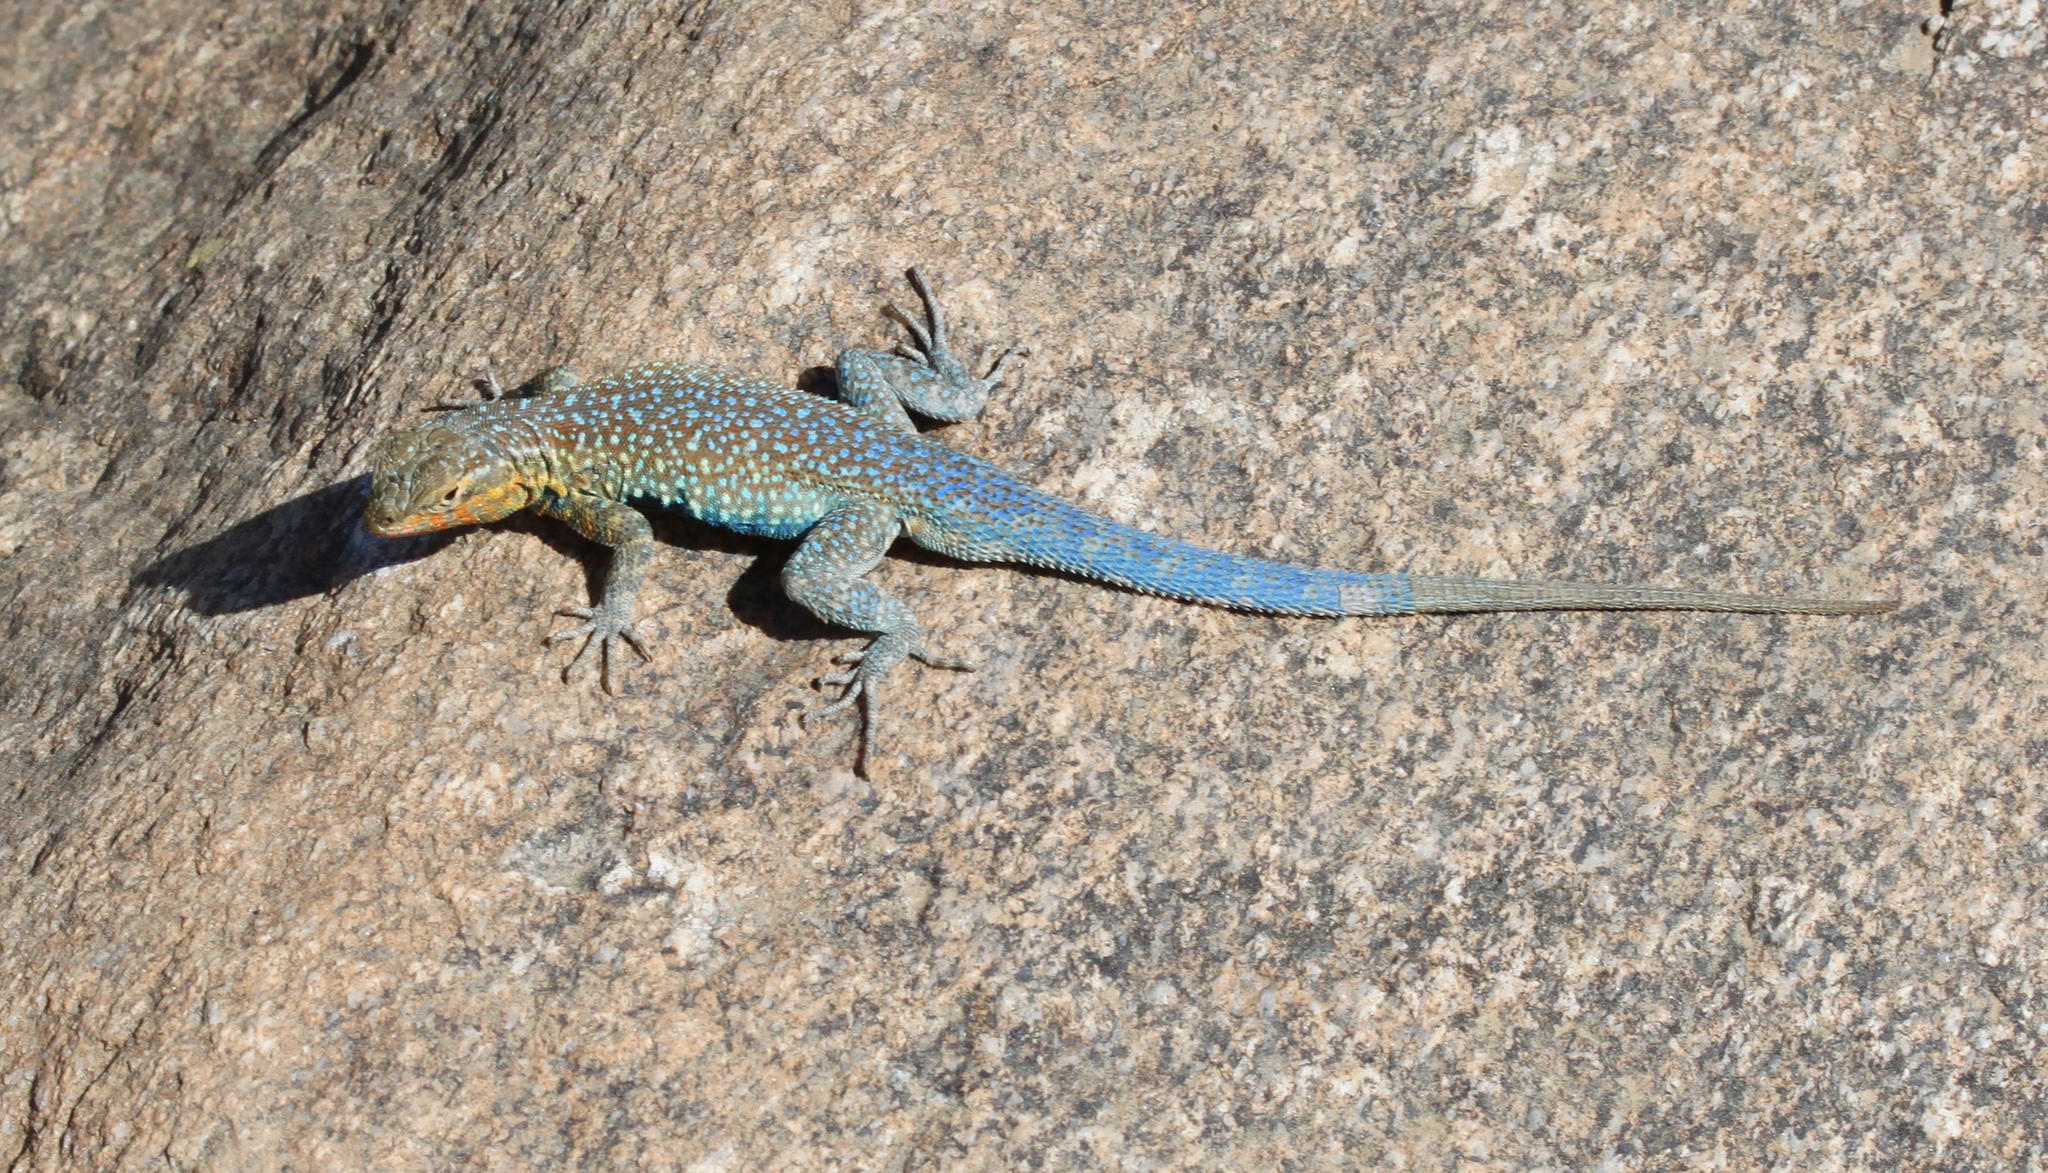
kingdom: Animalia
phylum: Chordata
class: Squamata
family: Phrynosomatidae
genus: Uta
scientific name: Uta stansburiana
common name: Side-blotched lizard
